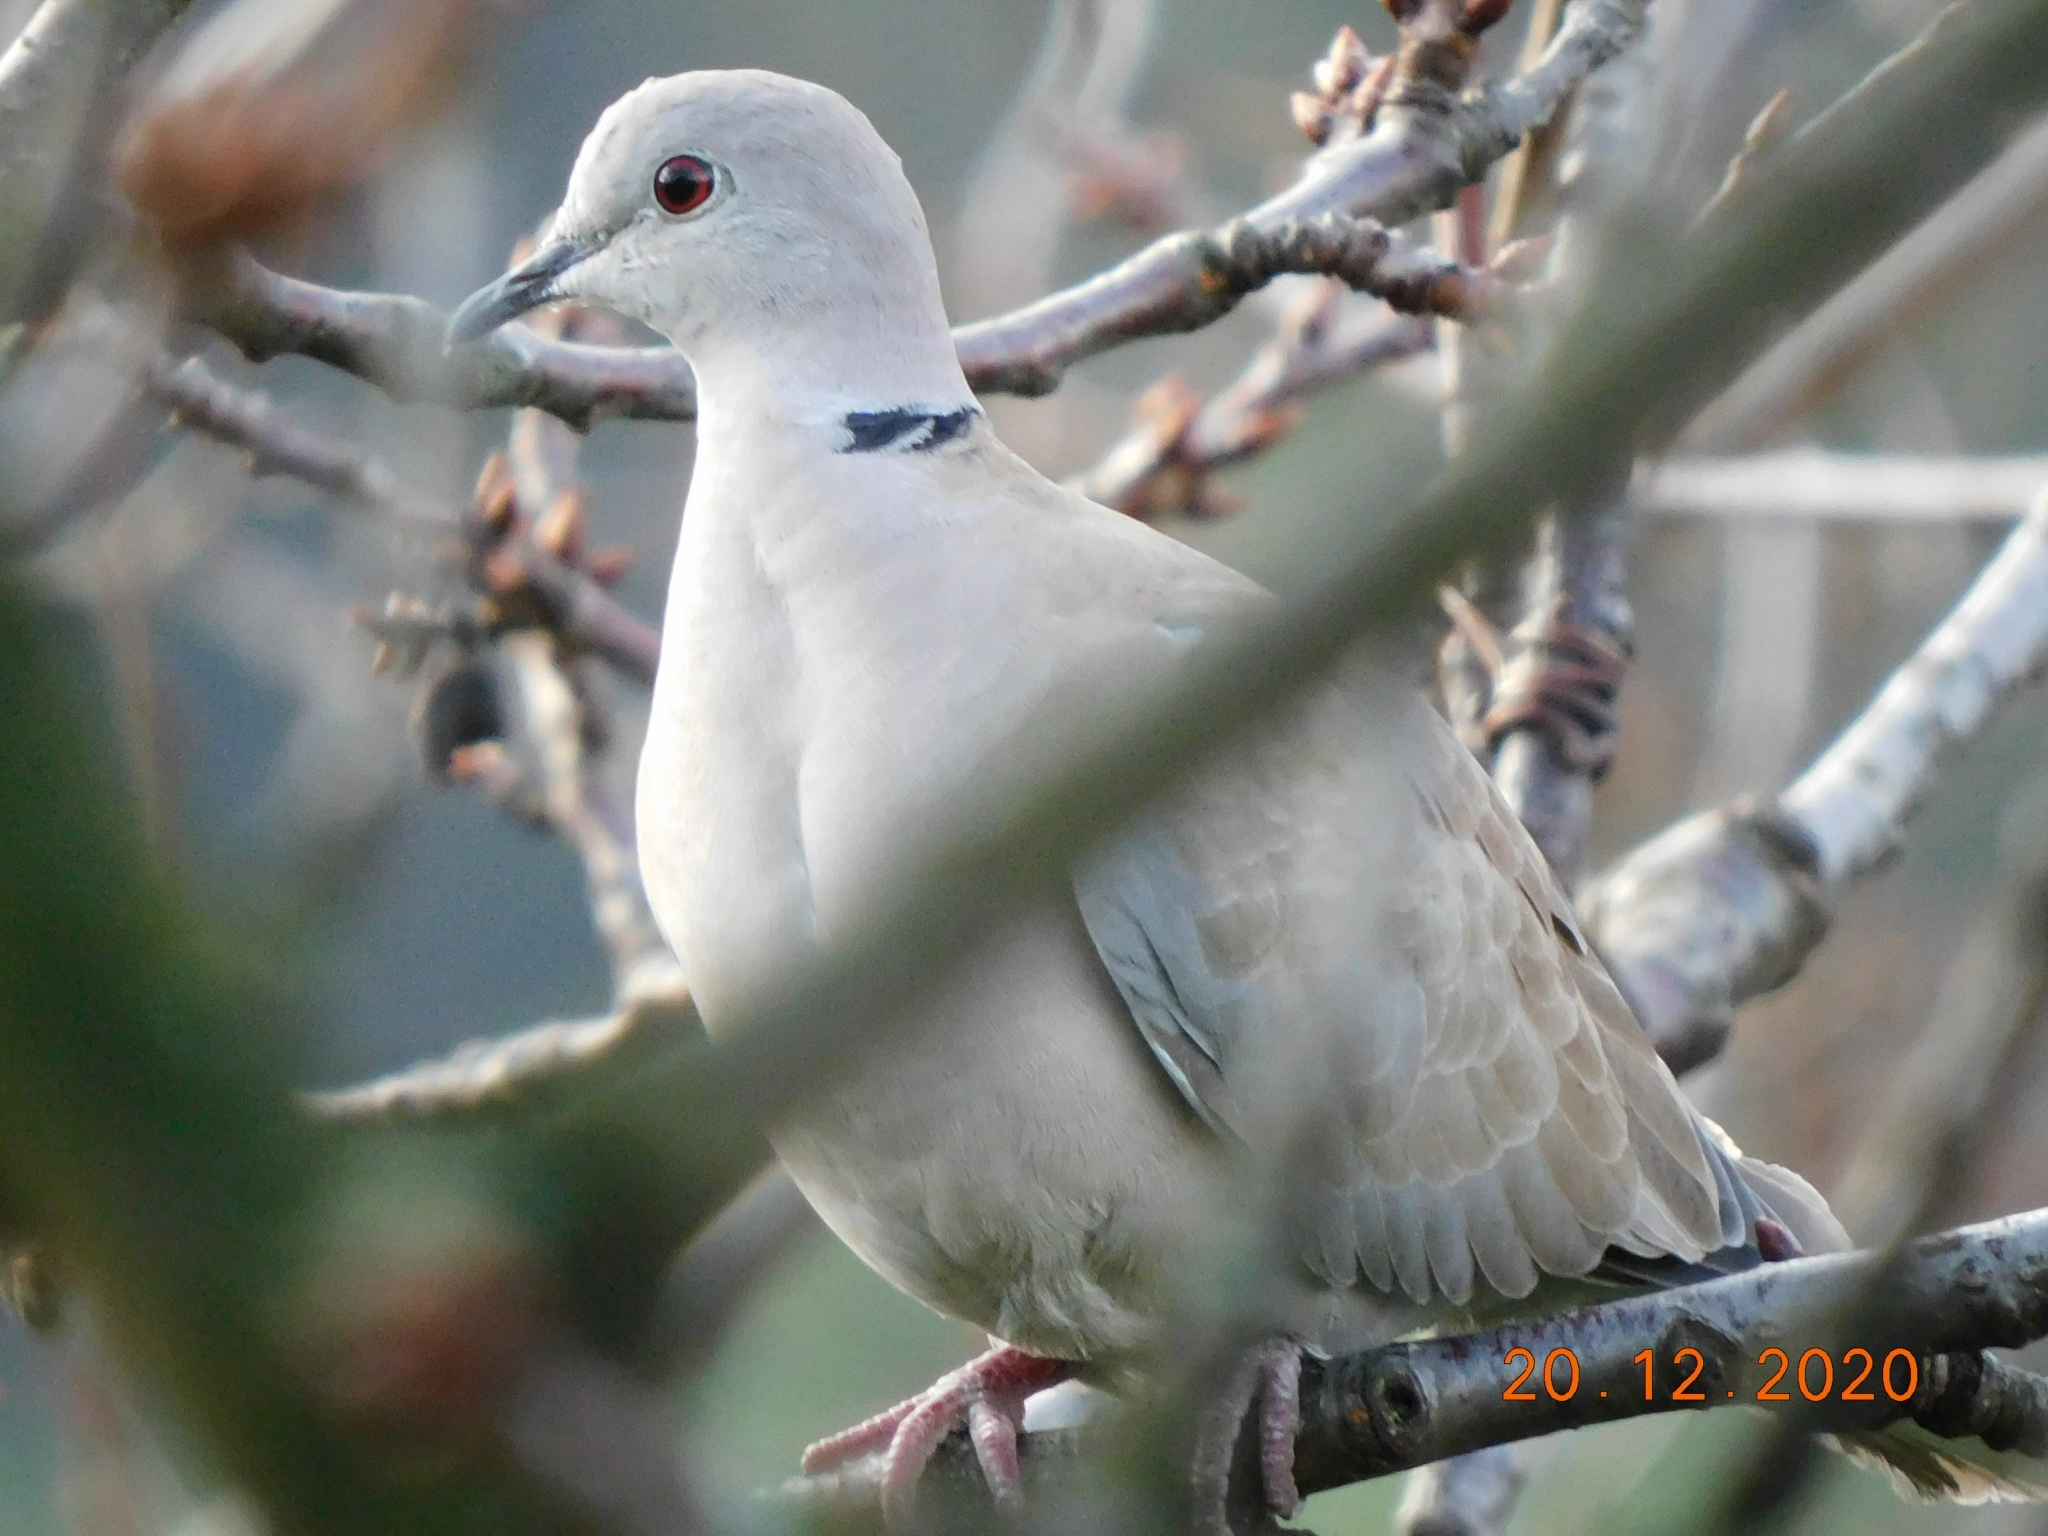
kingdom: Animalia
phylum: Chordata
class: Aves
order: Columbiformes
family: Columbidae
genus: Streptopelia
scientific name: Streptopelia decaocto
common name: Eurasian collared dove
